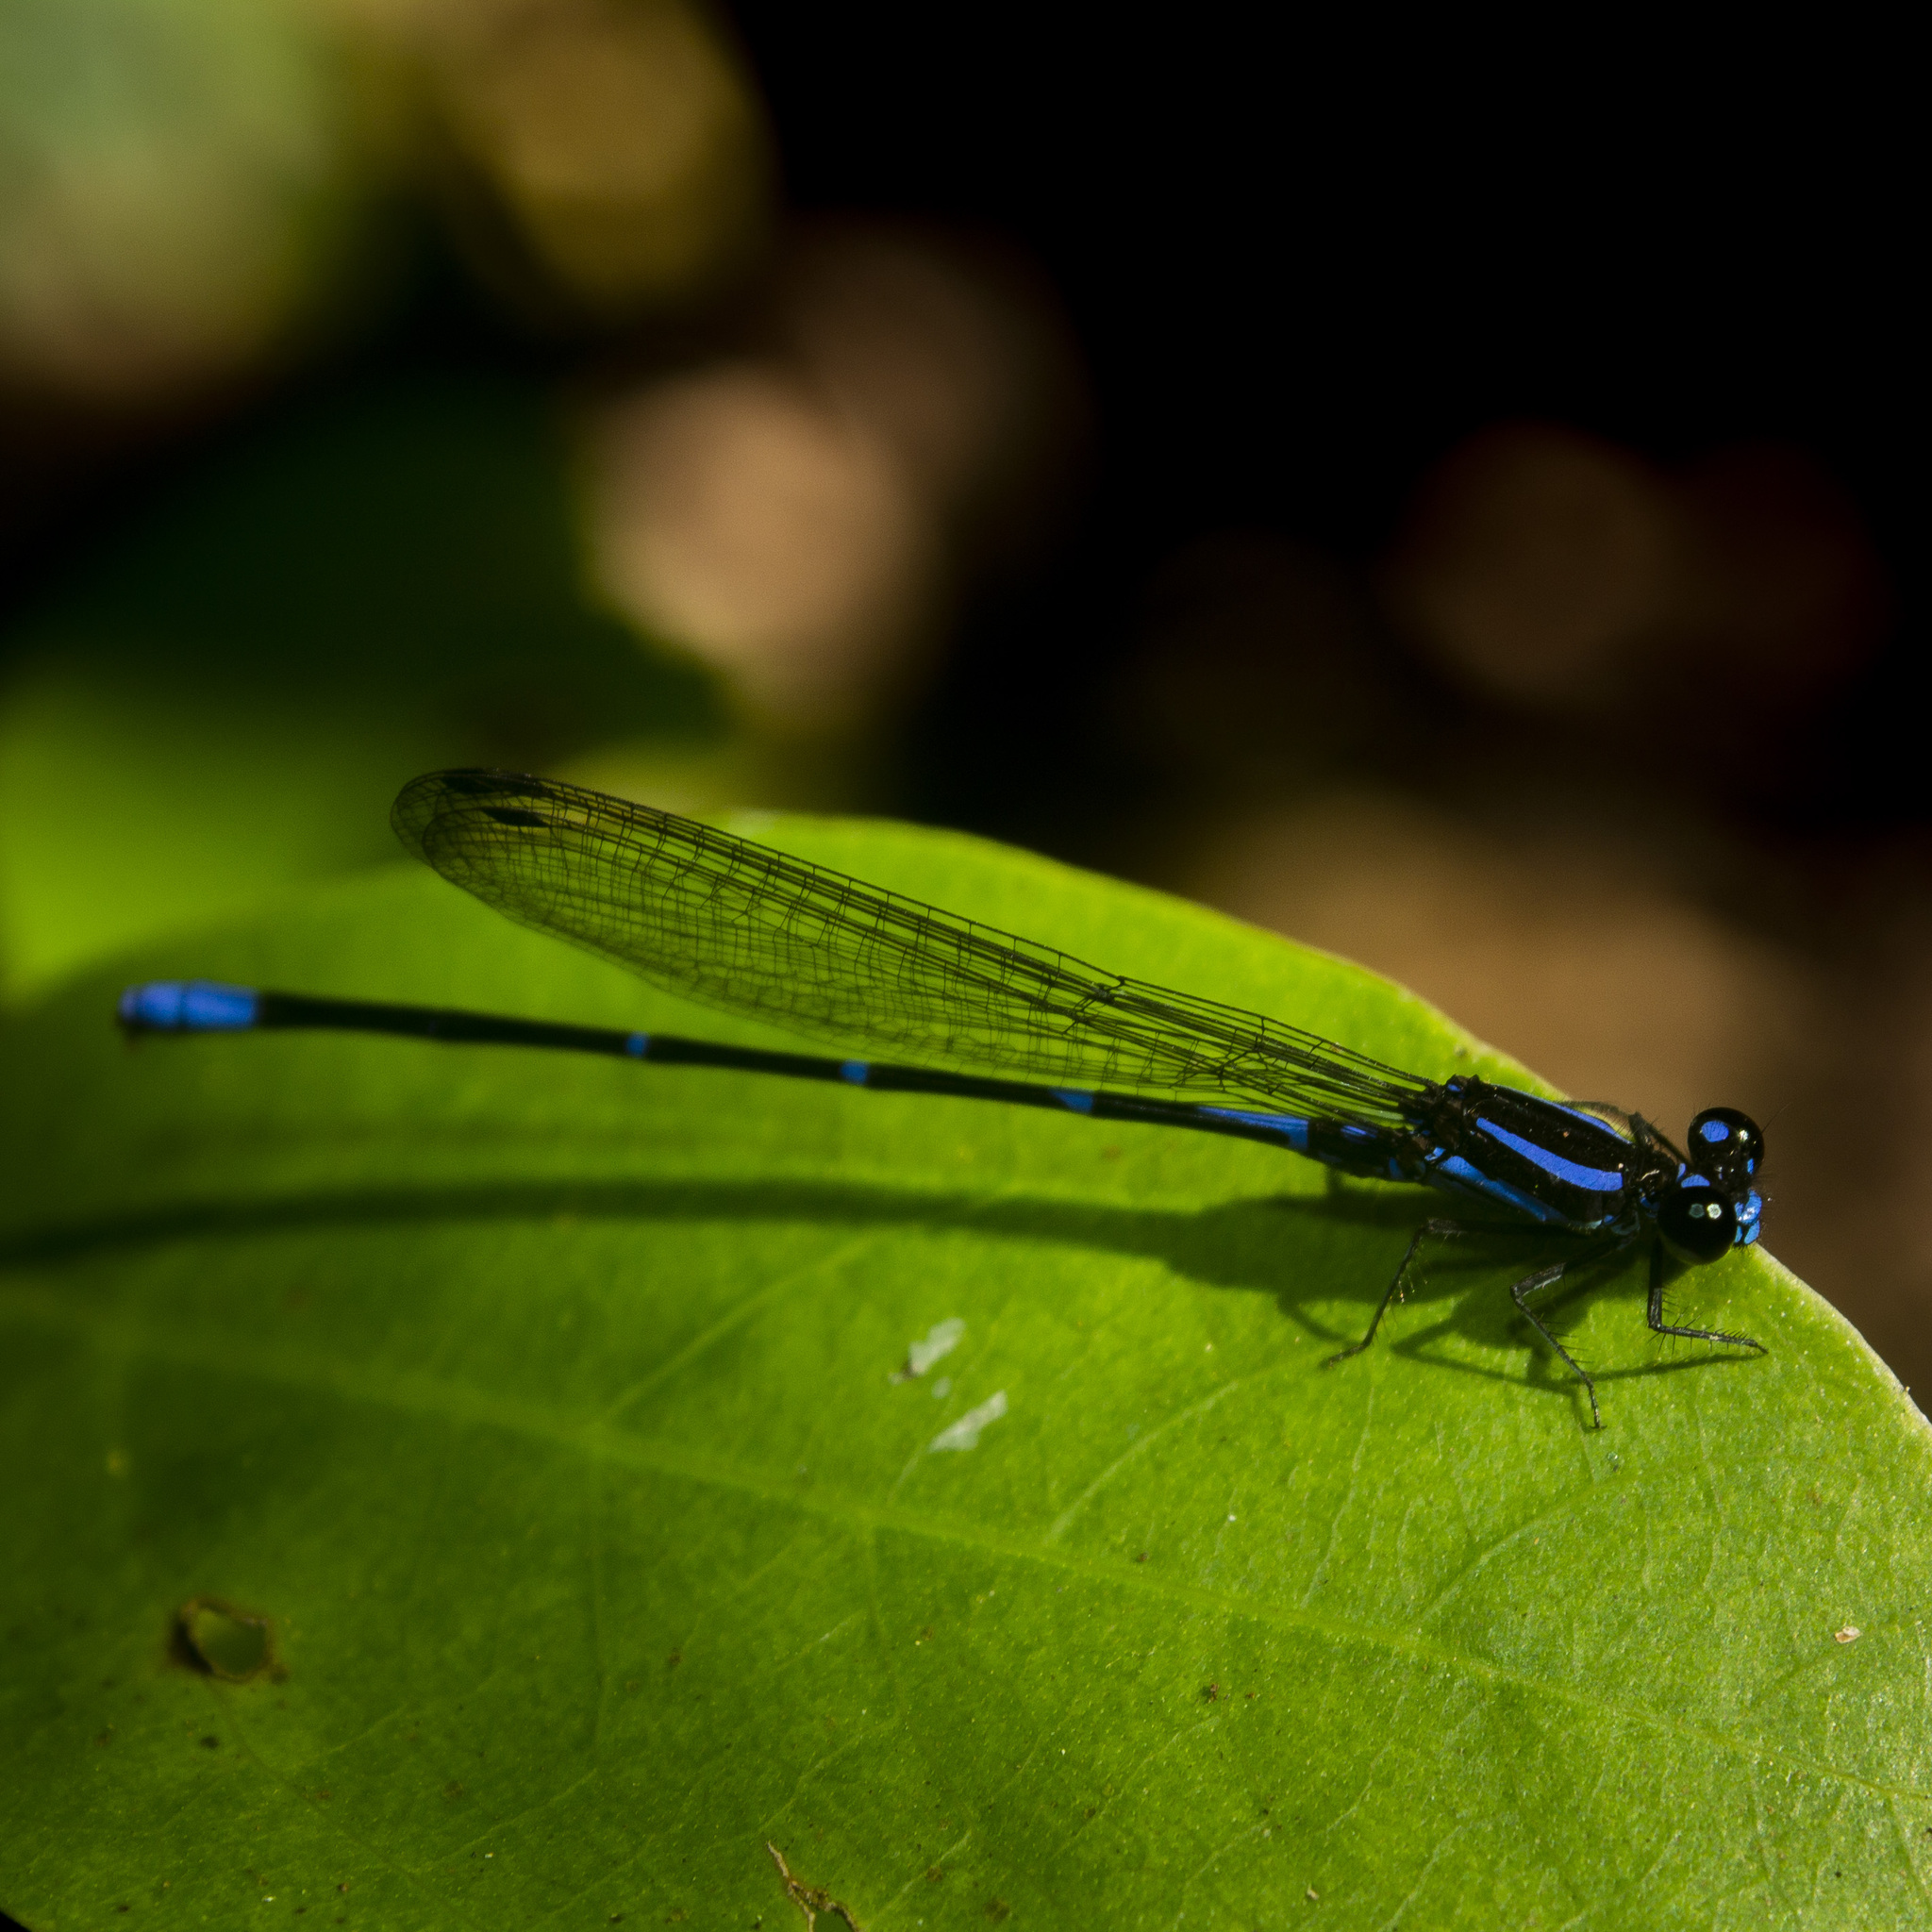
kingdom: Animalia
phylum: Arthropoda
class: Insecta
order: Odonata
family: Coenagrionidae
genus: Argia
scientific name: Argia oculata
